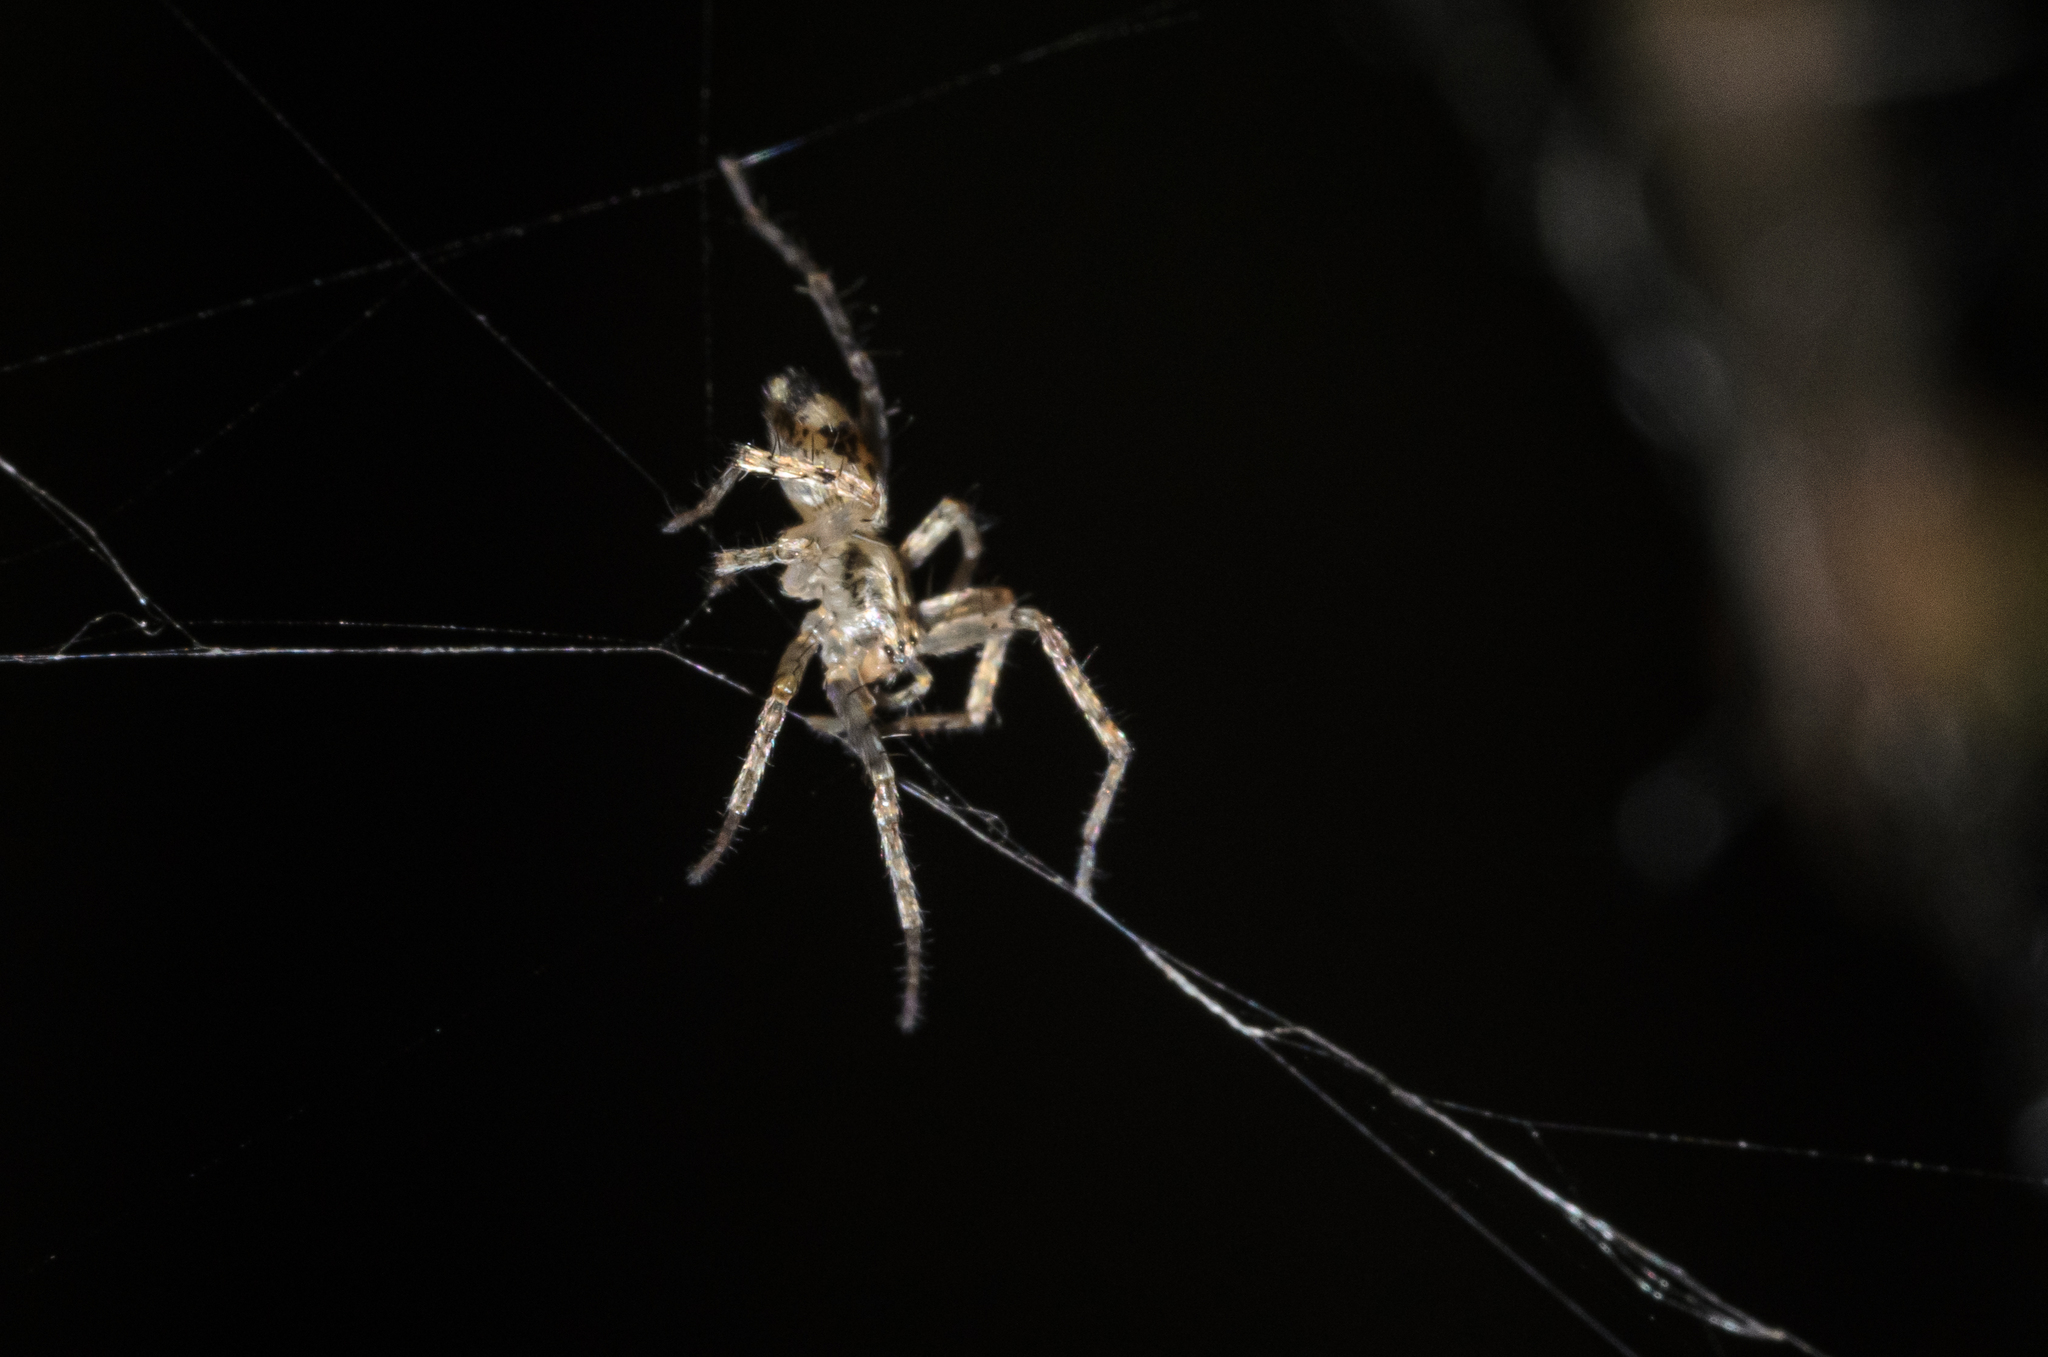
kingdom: Animalia
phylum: Arthropoda
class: Arachnida
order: Araneae
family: Anyphaenidae
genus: Anyphaena
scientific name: Anyphaena accentuata
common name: Buzzing spider
